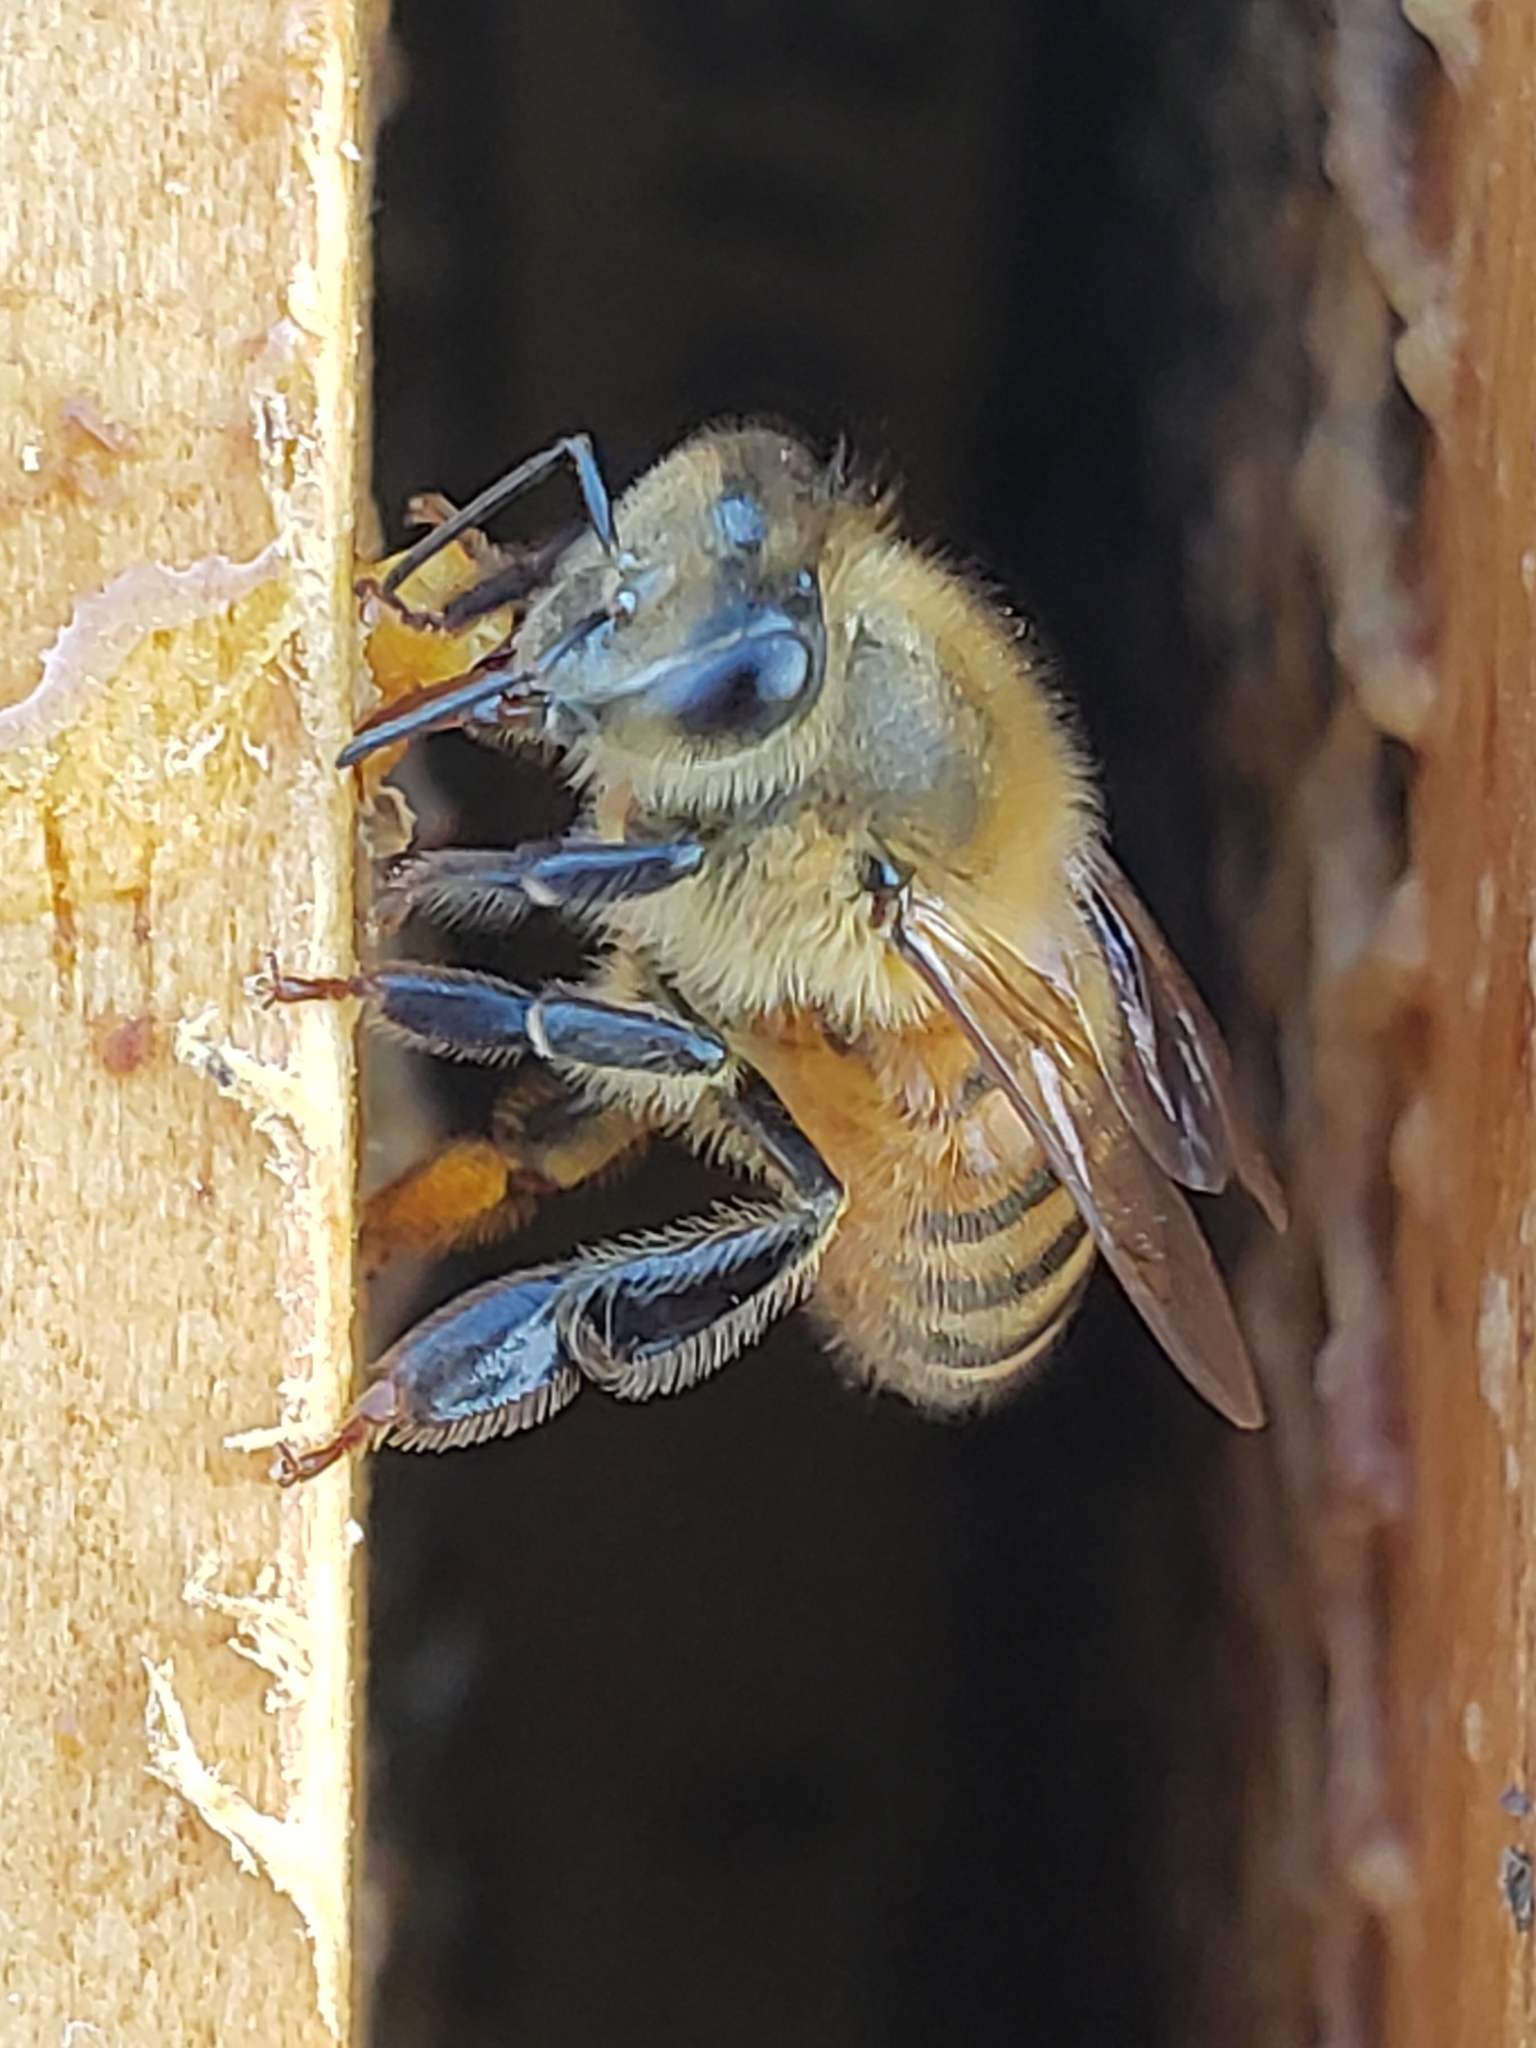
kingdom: Animalia
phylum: Arthropoda
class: Insecta
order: Hymenoptera
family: Apidae
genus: Apis
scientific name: Apis mellifera
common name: Honey bee
